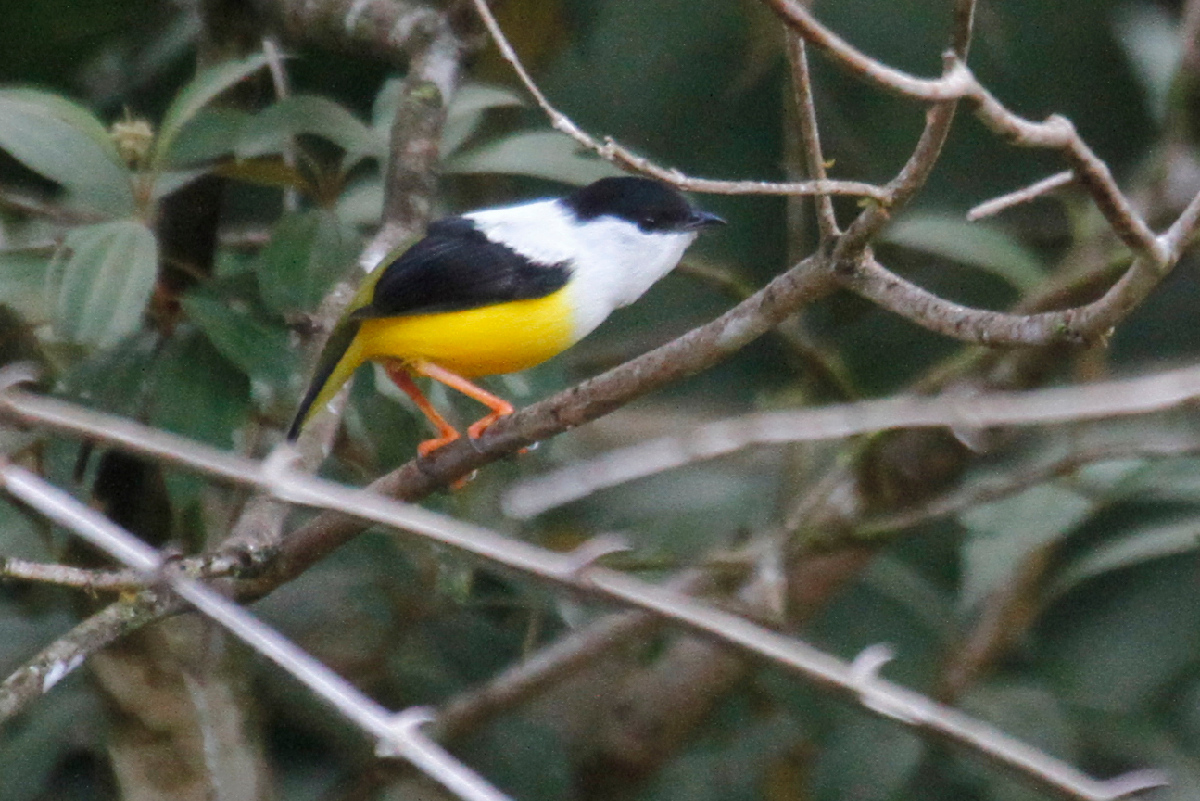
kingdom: Animalia
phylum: Chordata
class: Aves
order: Passeriformes
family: Pipridae
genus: Manacus
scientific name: Manacus candei
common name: White-collared manakin
